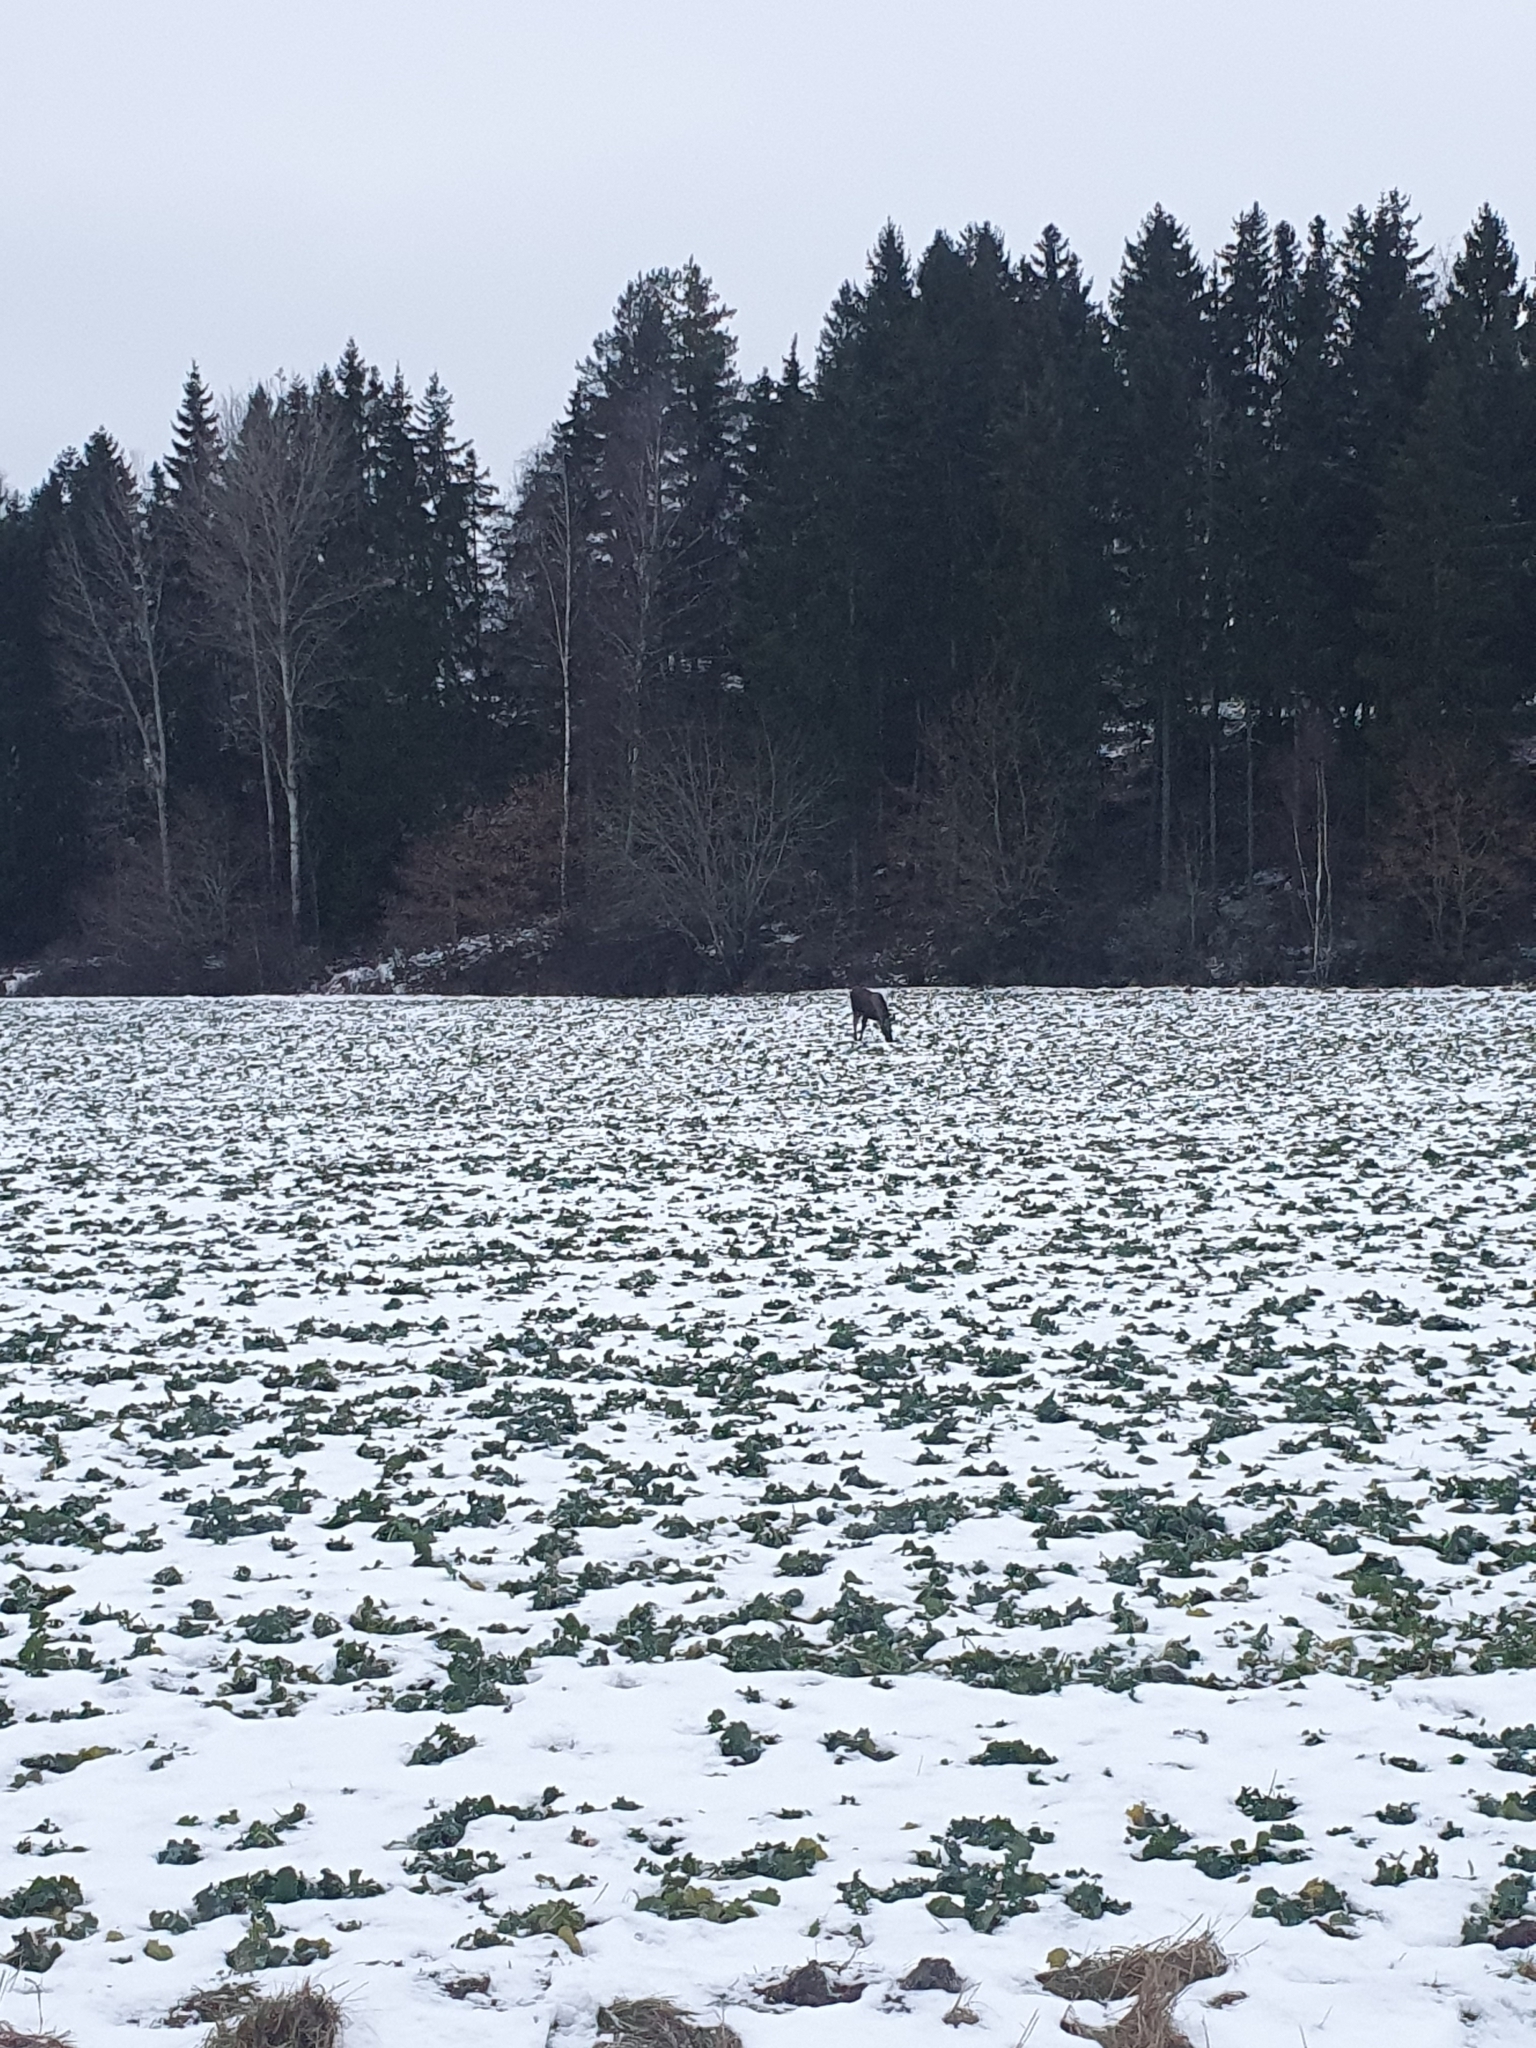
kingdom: Animalia
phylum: Chordata
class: Mammalia
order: Artiodactyla
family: Cervidae
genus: Alces
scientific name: Alces alces
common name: Moose
